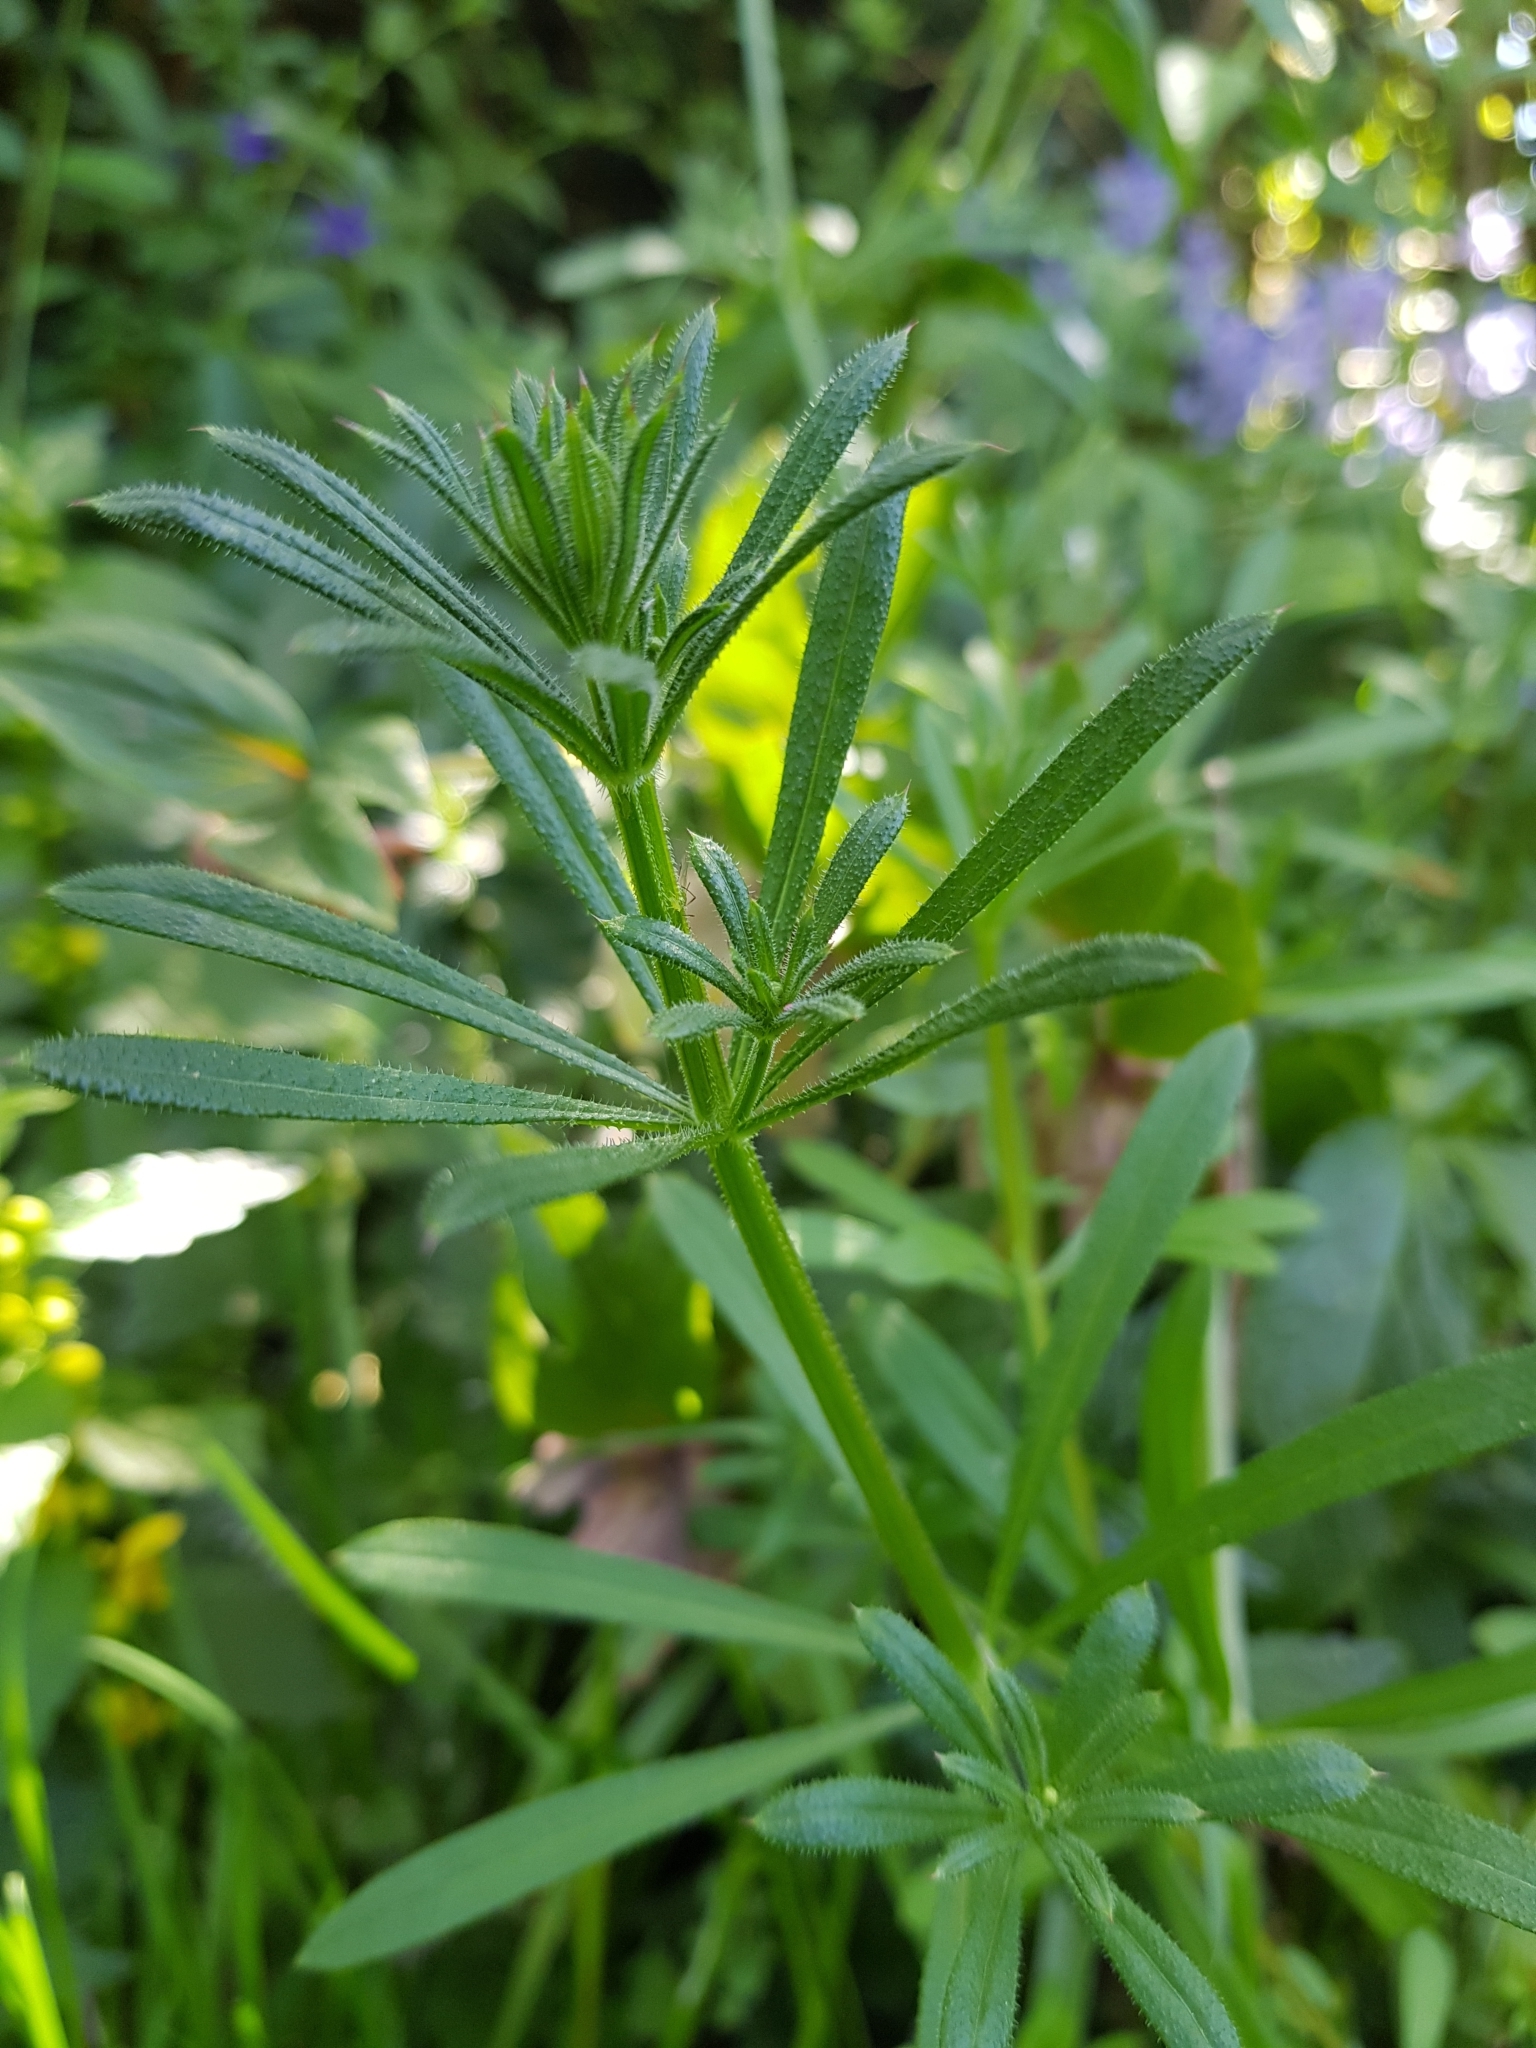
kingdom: Plantae
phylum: Tracheophyta
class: Magnoliopsida
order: Gentianales
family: Rubiaceae
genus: Galium
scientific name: Galium aparine
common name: Cleavers
